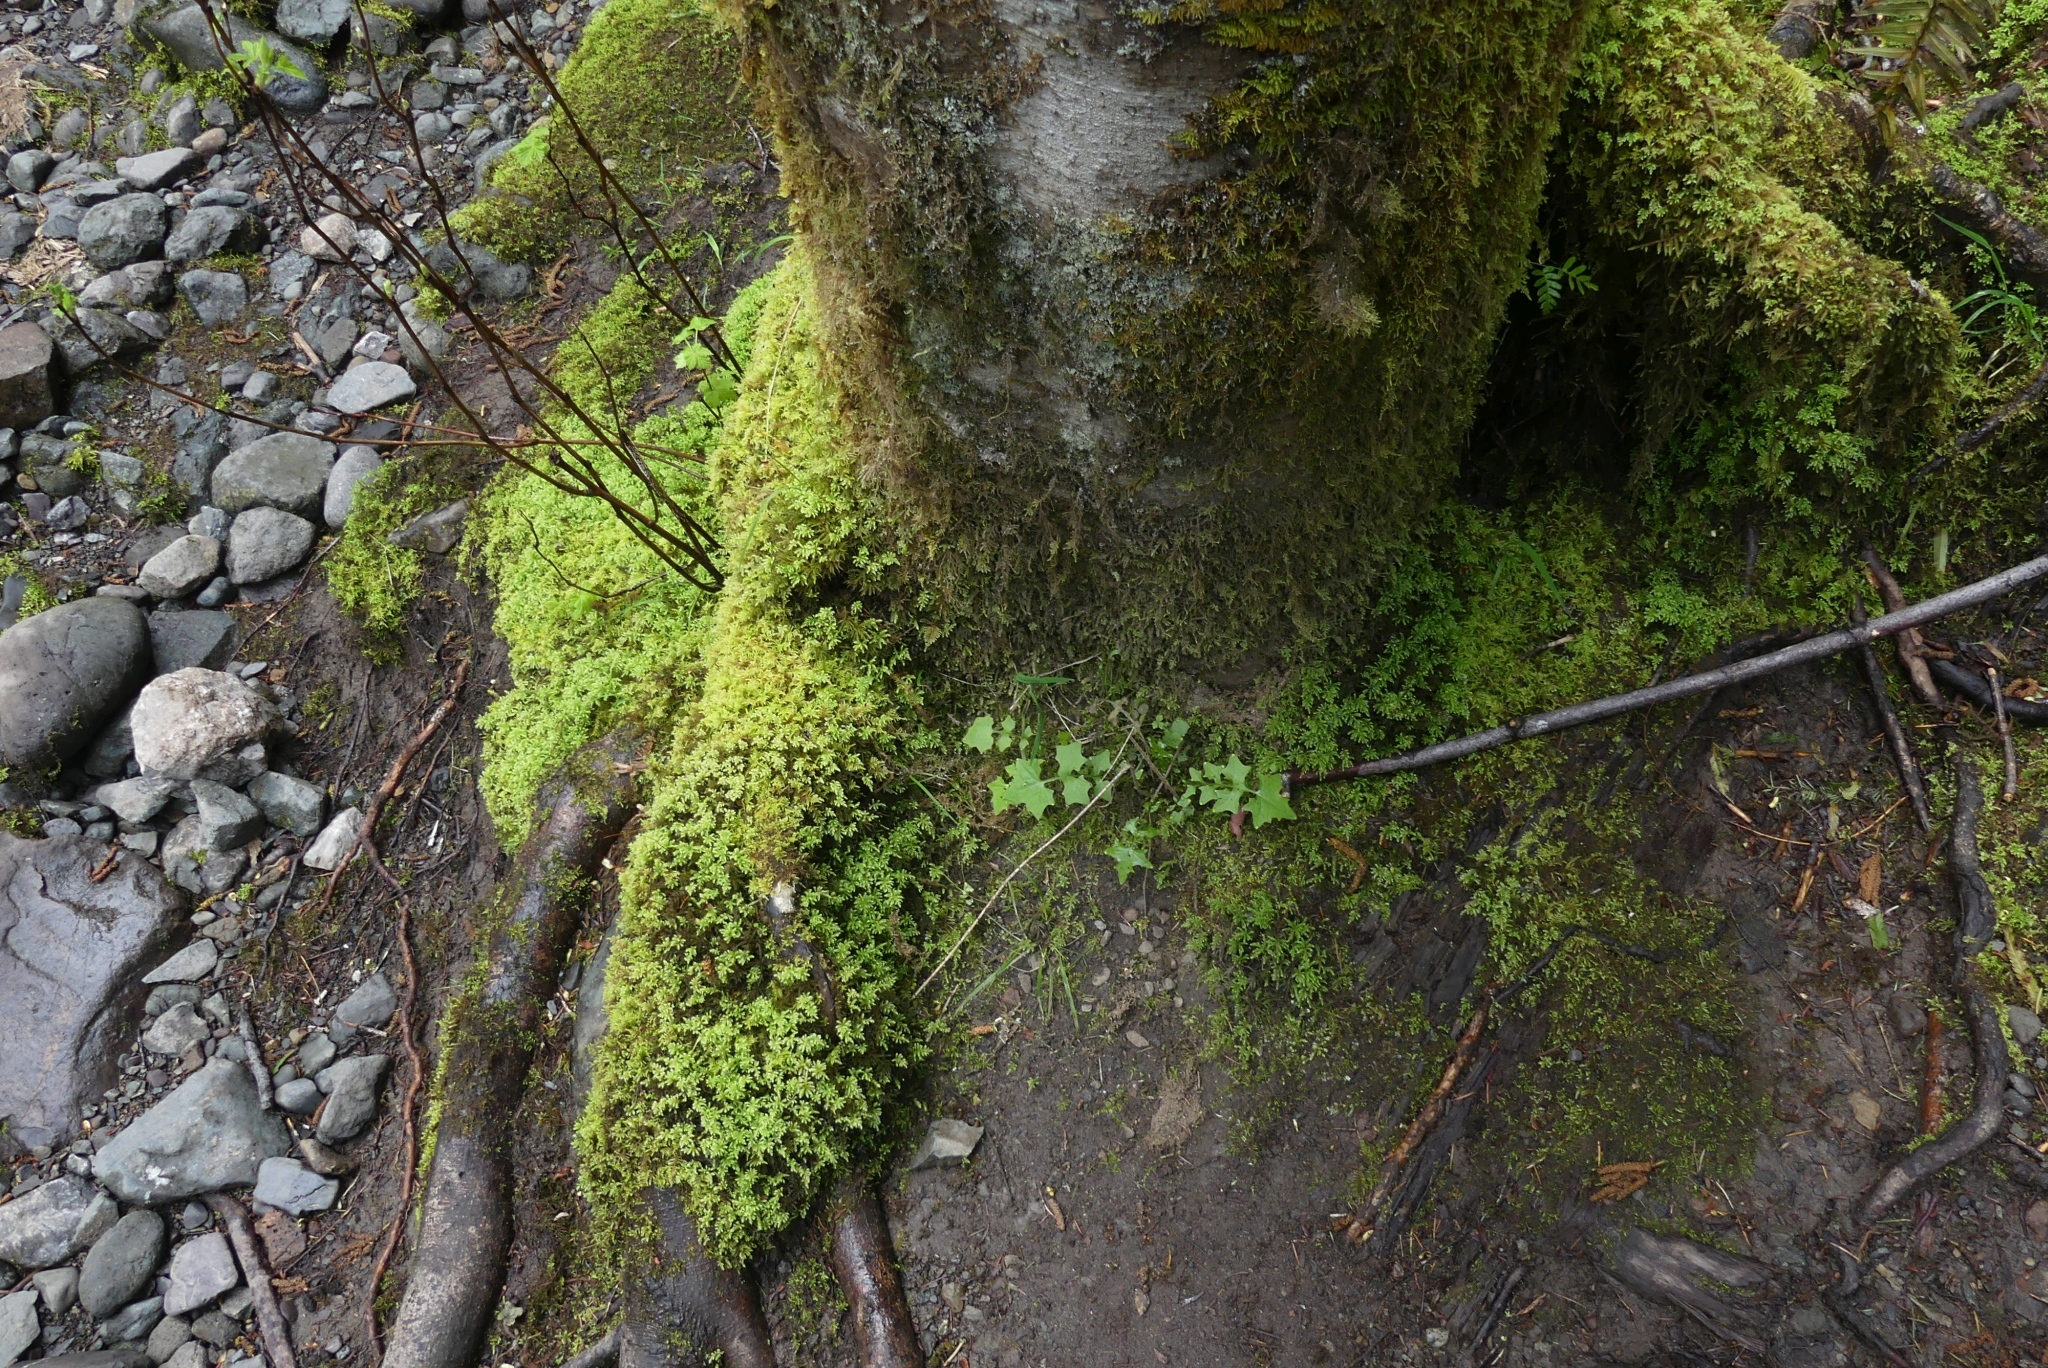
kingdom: Plantae
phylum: Tracheophyta
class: Magnoliopsida
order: Asterales
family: Asteraceae
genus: Mycelis
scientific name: Mycelis muralis
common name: Wall lettuce
